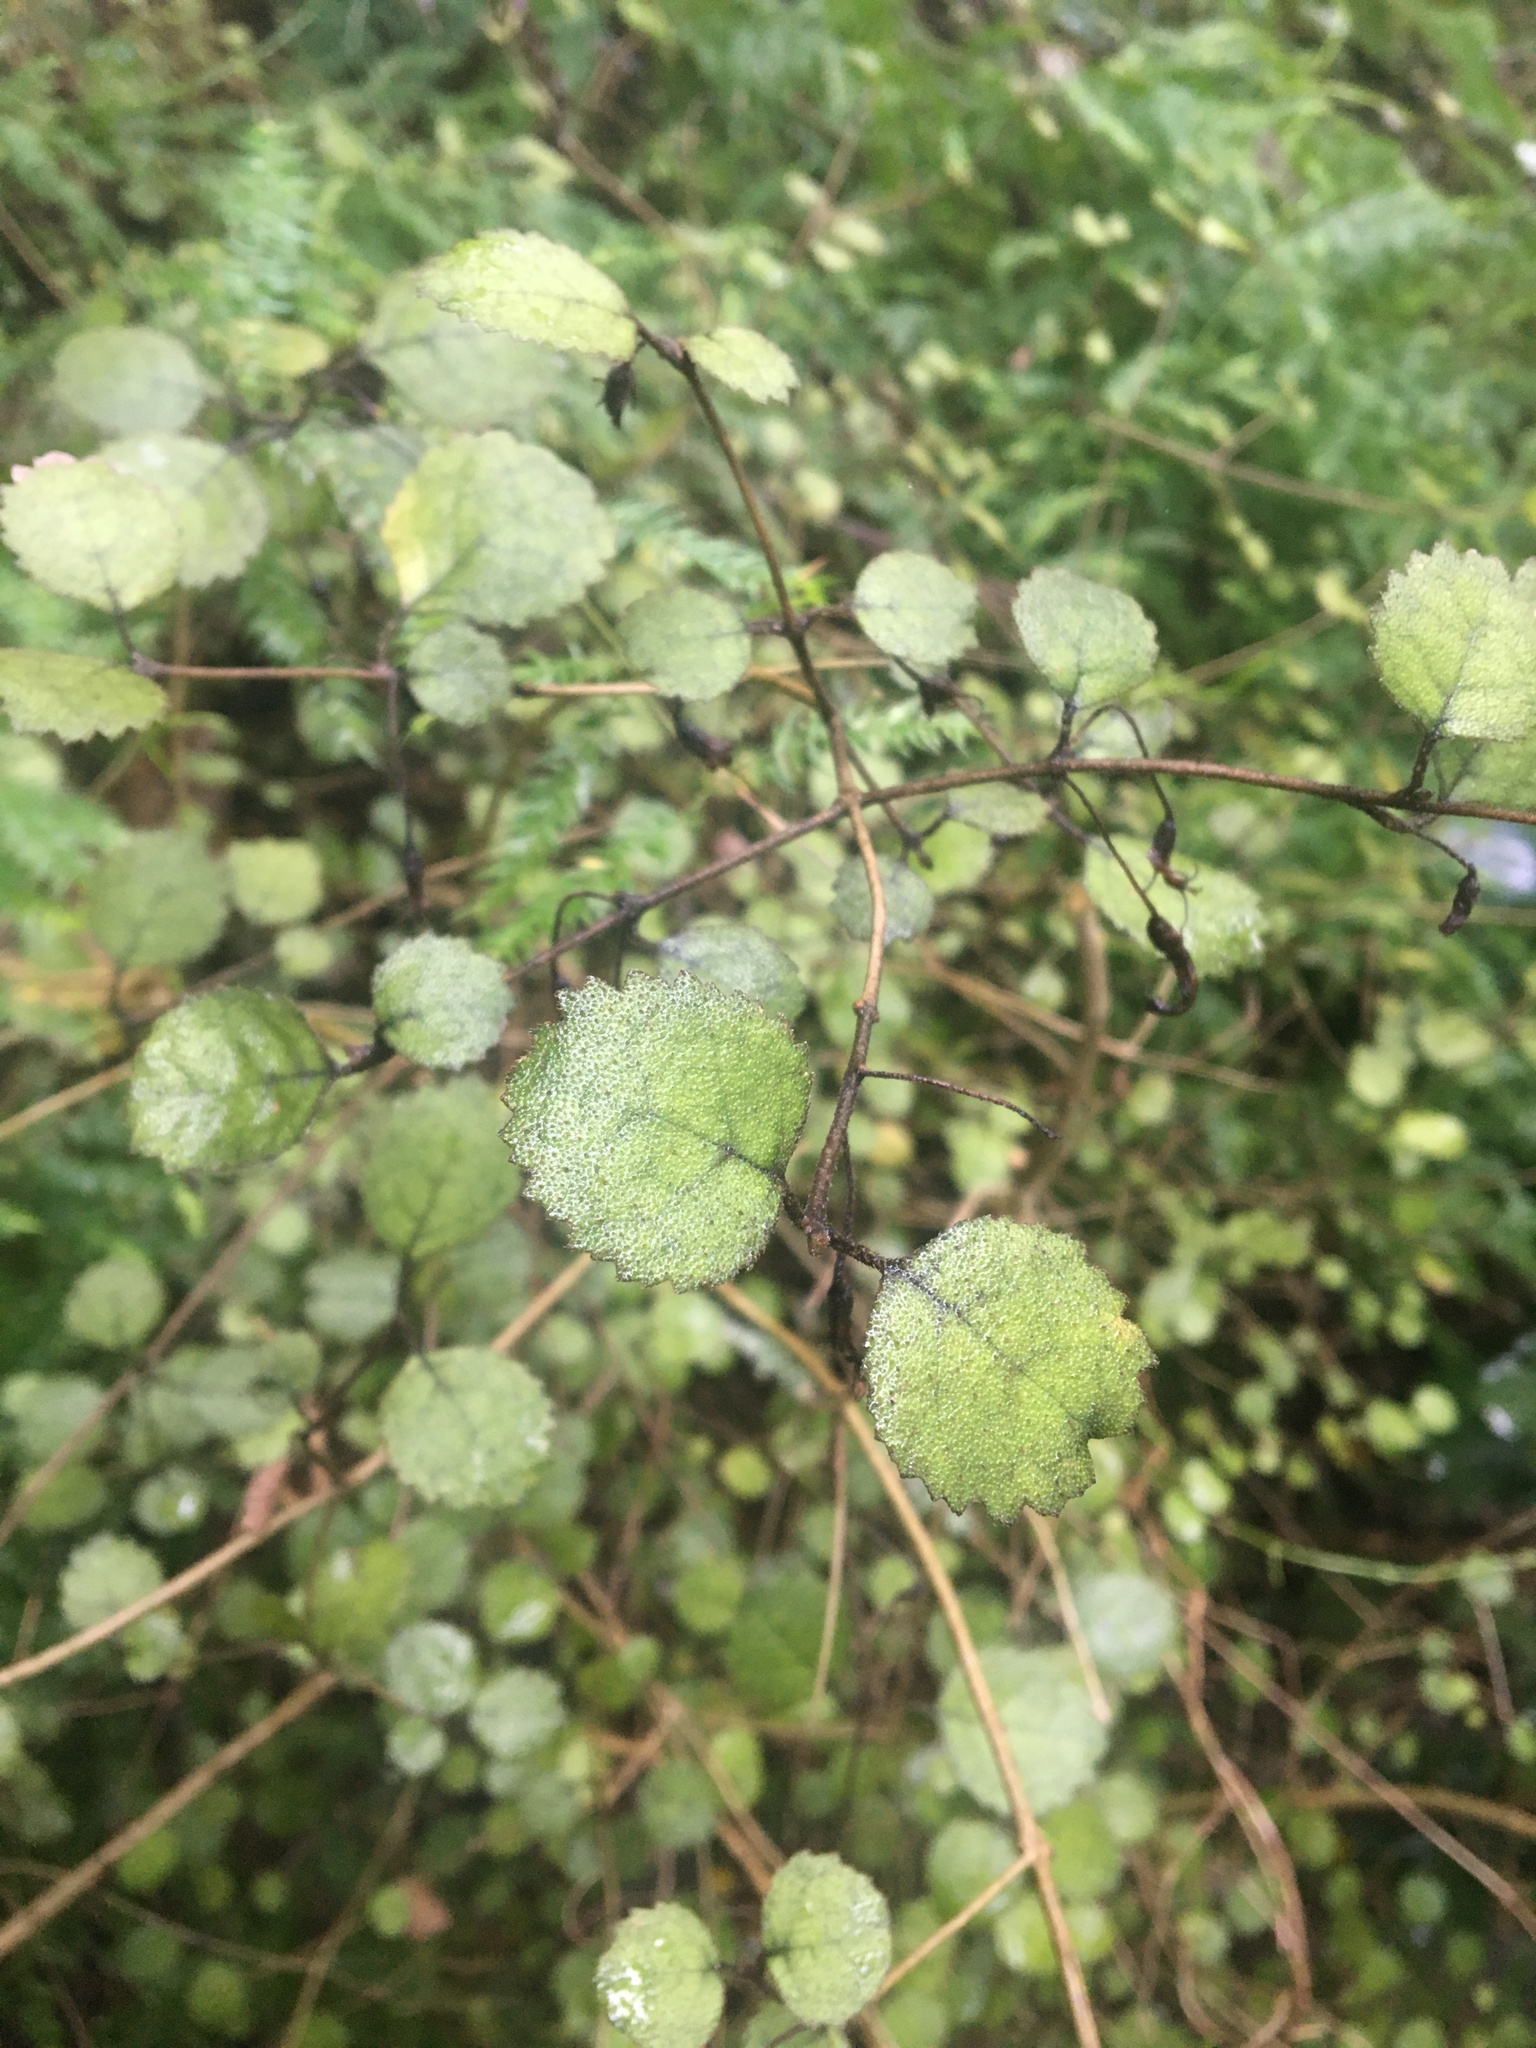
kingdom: Plantae
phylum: Tracheophyta
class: Magnoliopsida
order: Lamiales
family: Gesneriaceae
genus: Rhabdothamnus
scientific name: Rhabdothamnus solandri
